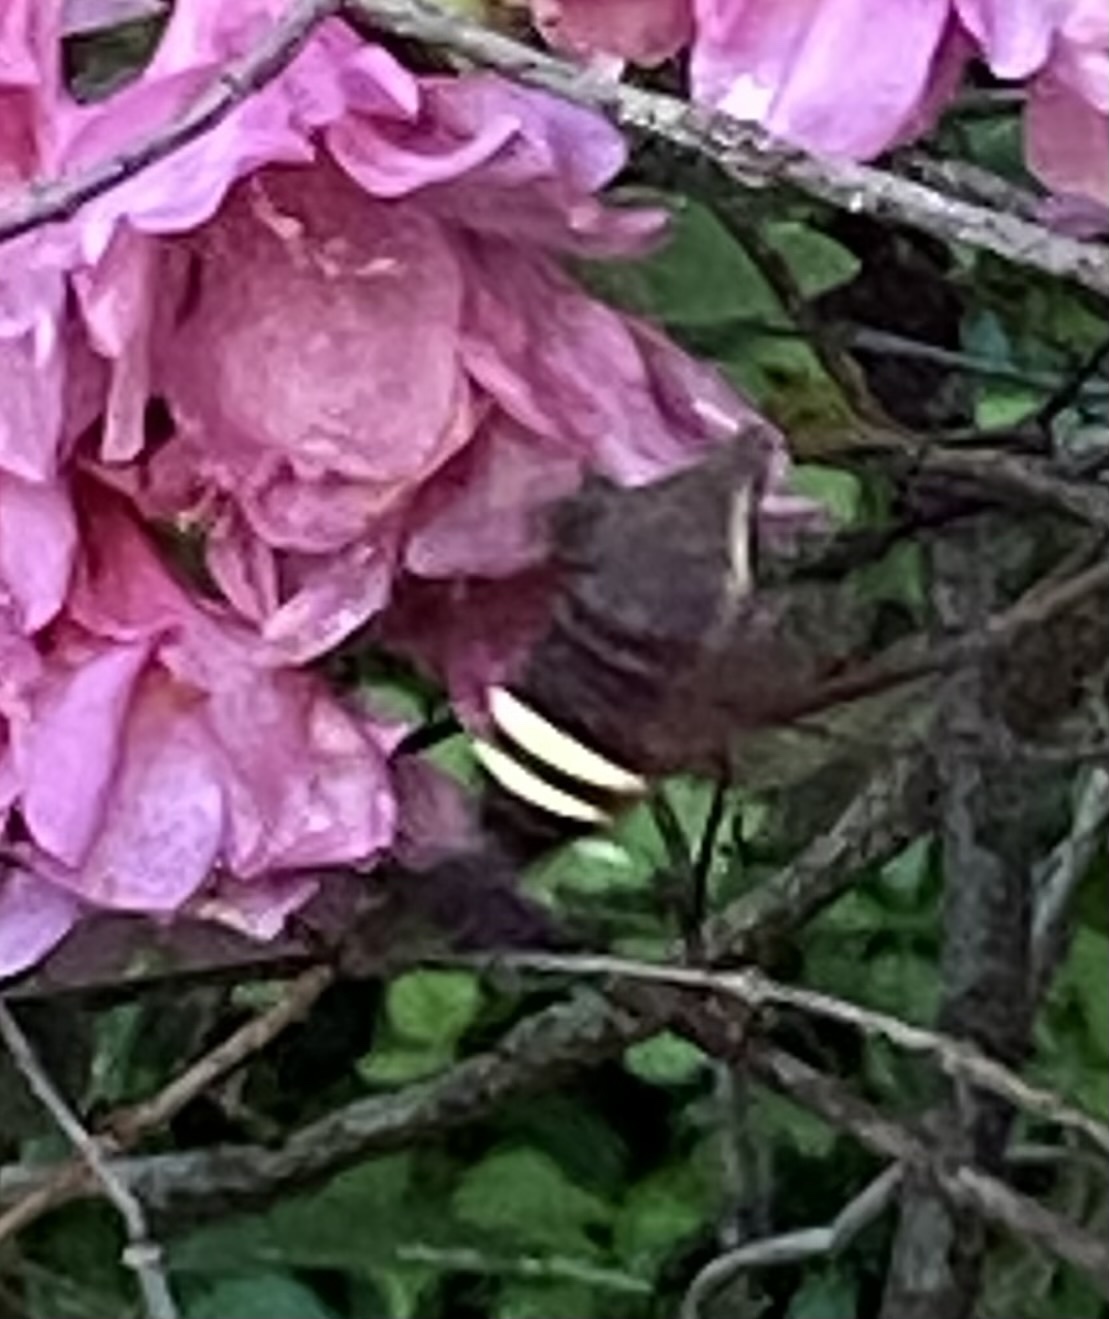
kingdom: Animalia
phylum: Arthropoda
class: Insecta
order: Lepidoptera
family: Sphingidae
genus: Amphion
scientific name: Amphion floridensis
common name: Nessus sphinx
